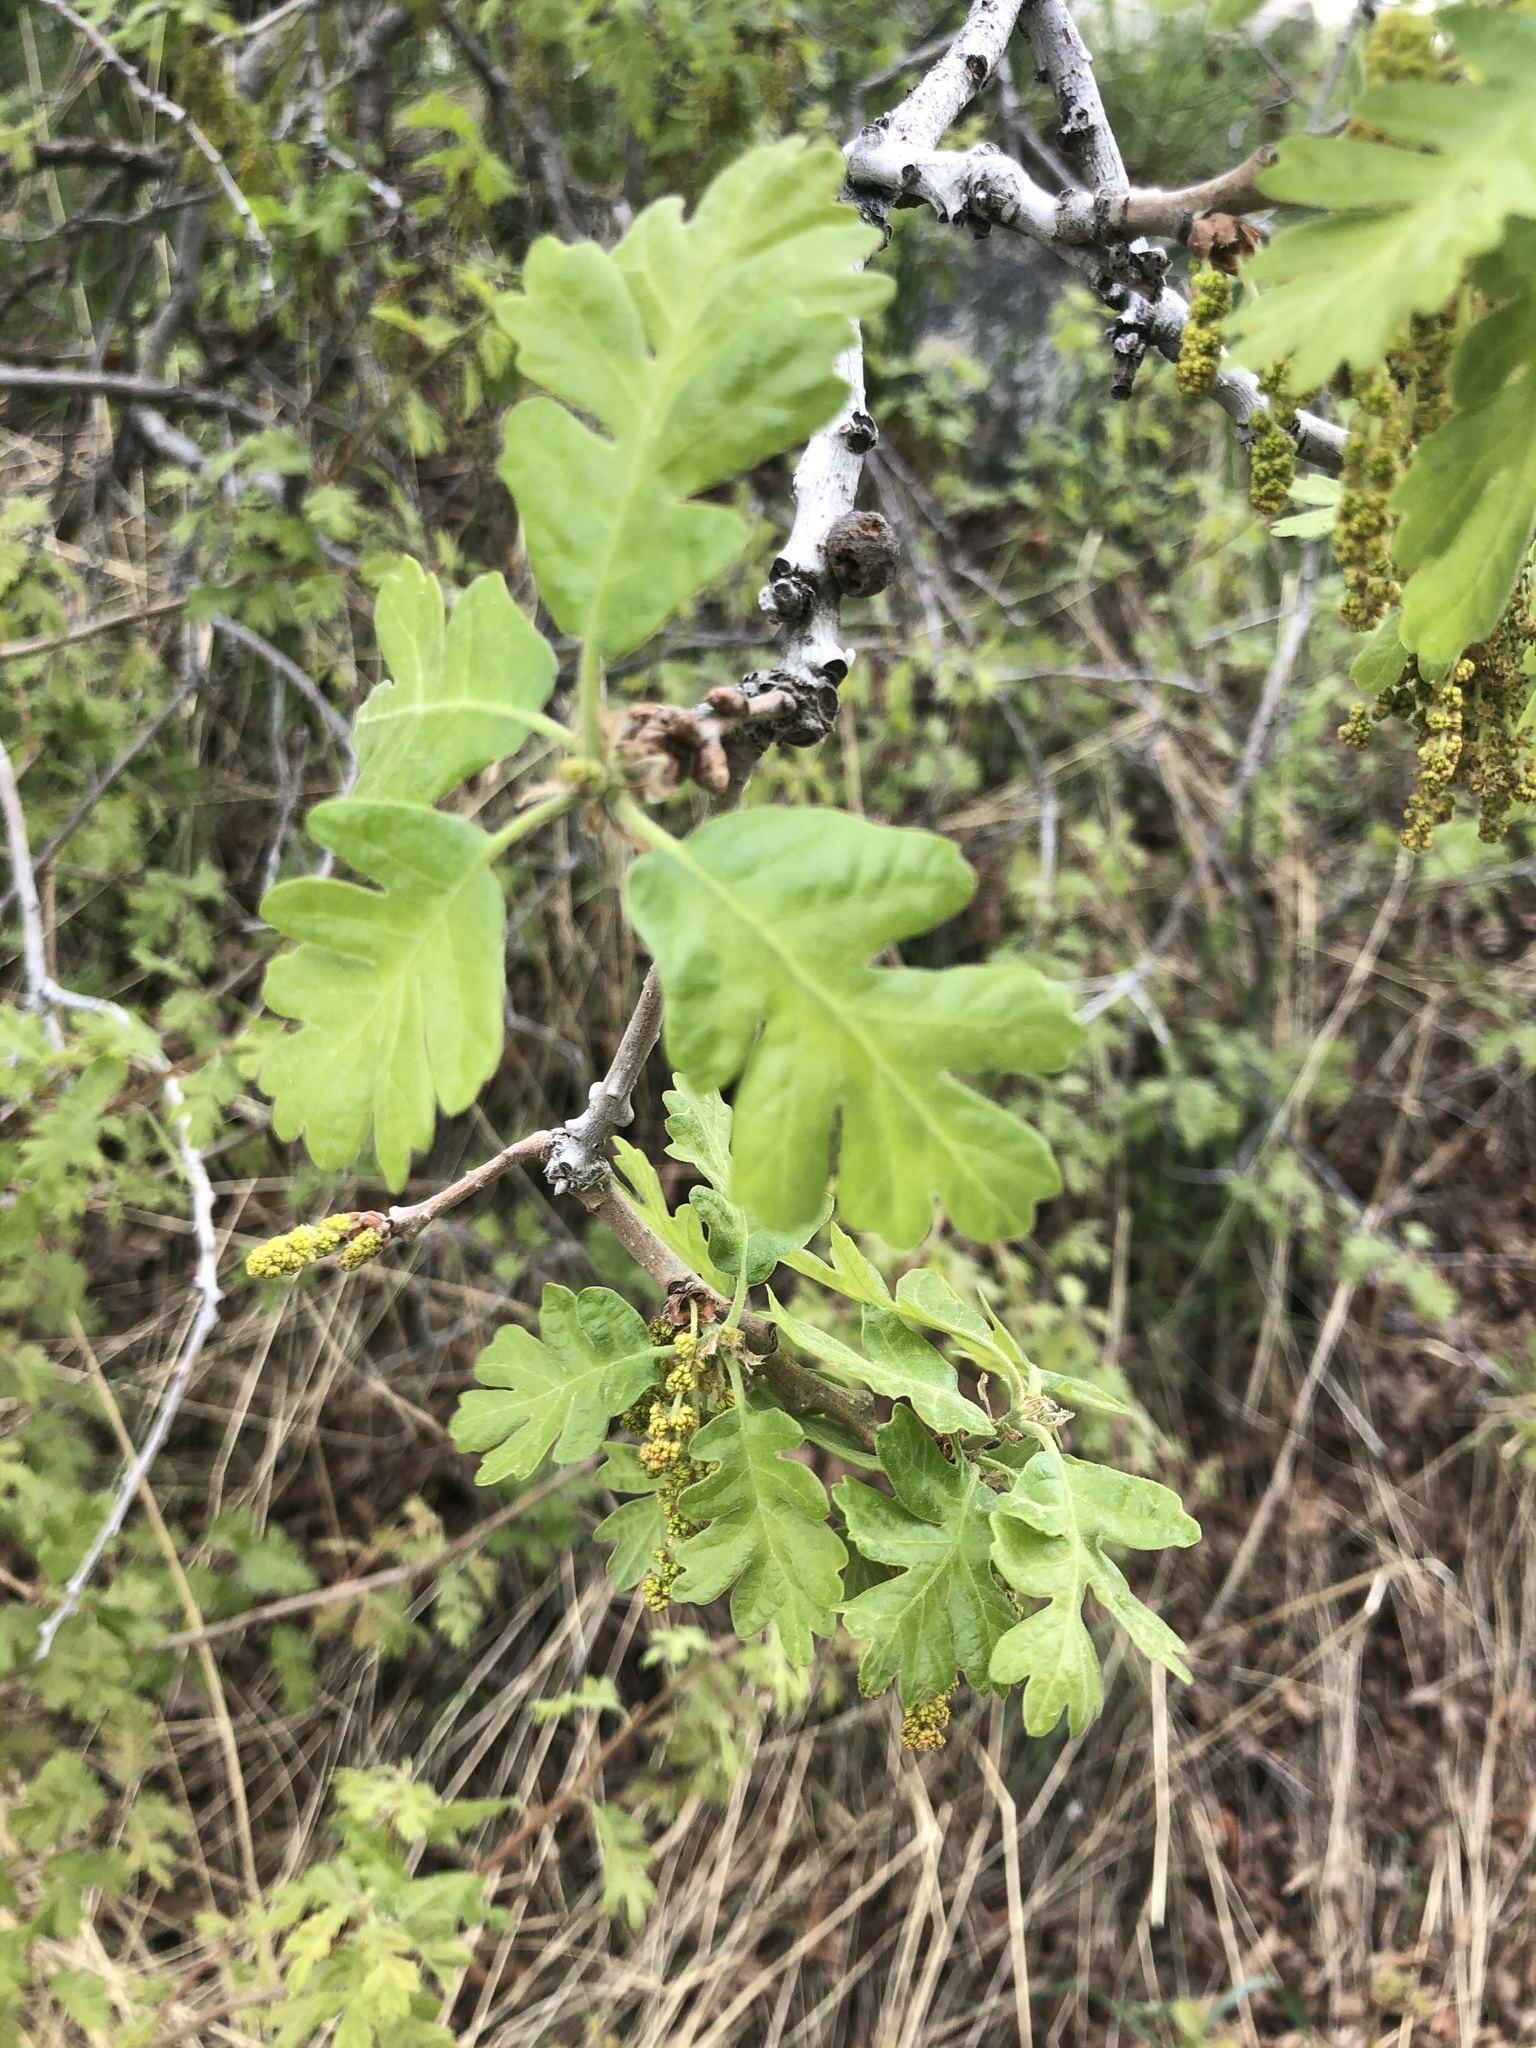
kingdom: Plantae
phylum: Tracheophyta
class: Magnoliopsida
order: Fagales
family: Fagaceae
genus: Quercus
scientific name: Quercus gambelii
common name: Gambel oak
